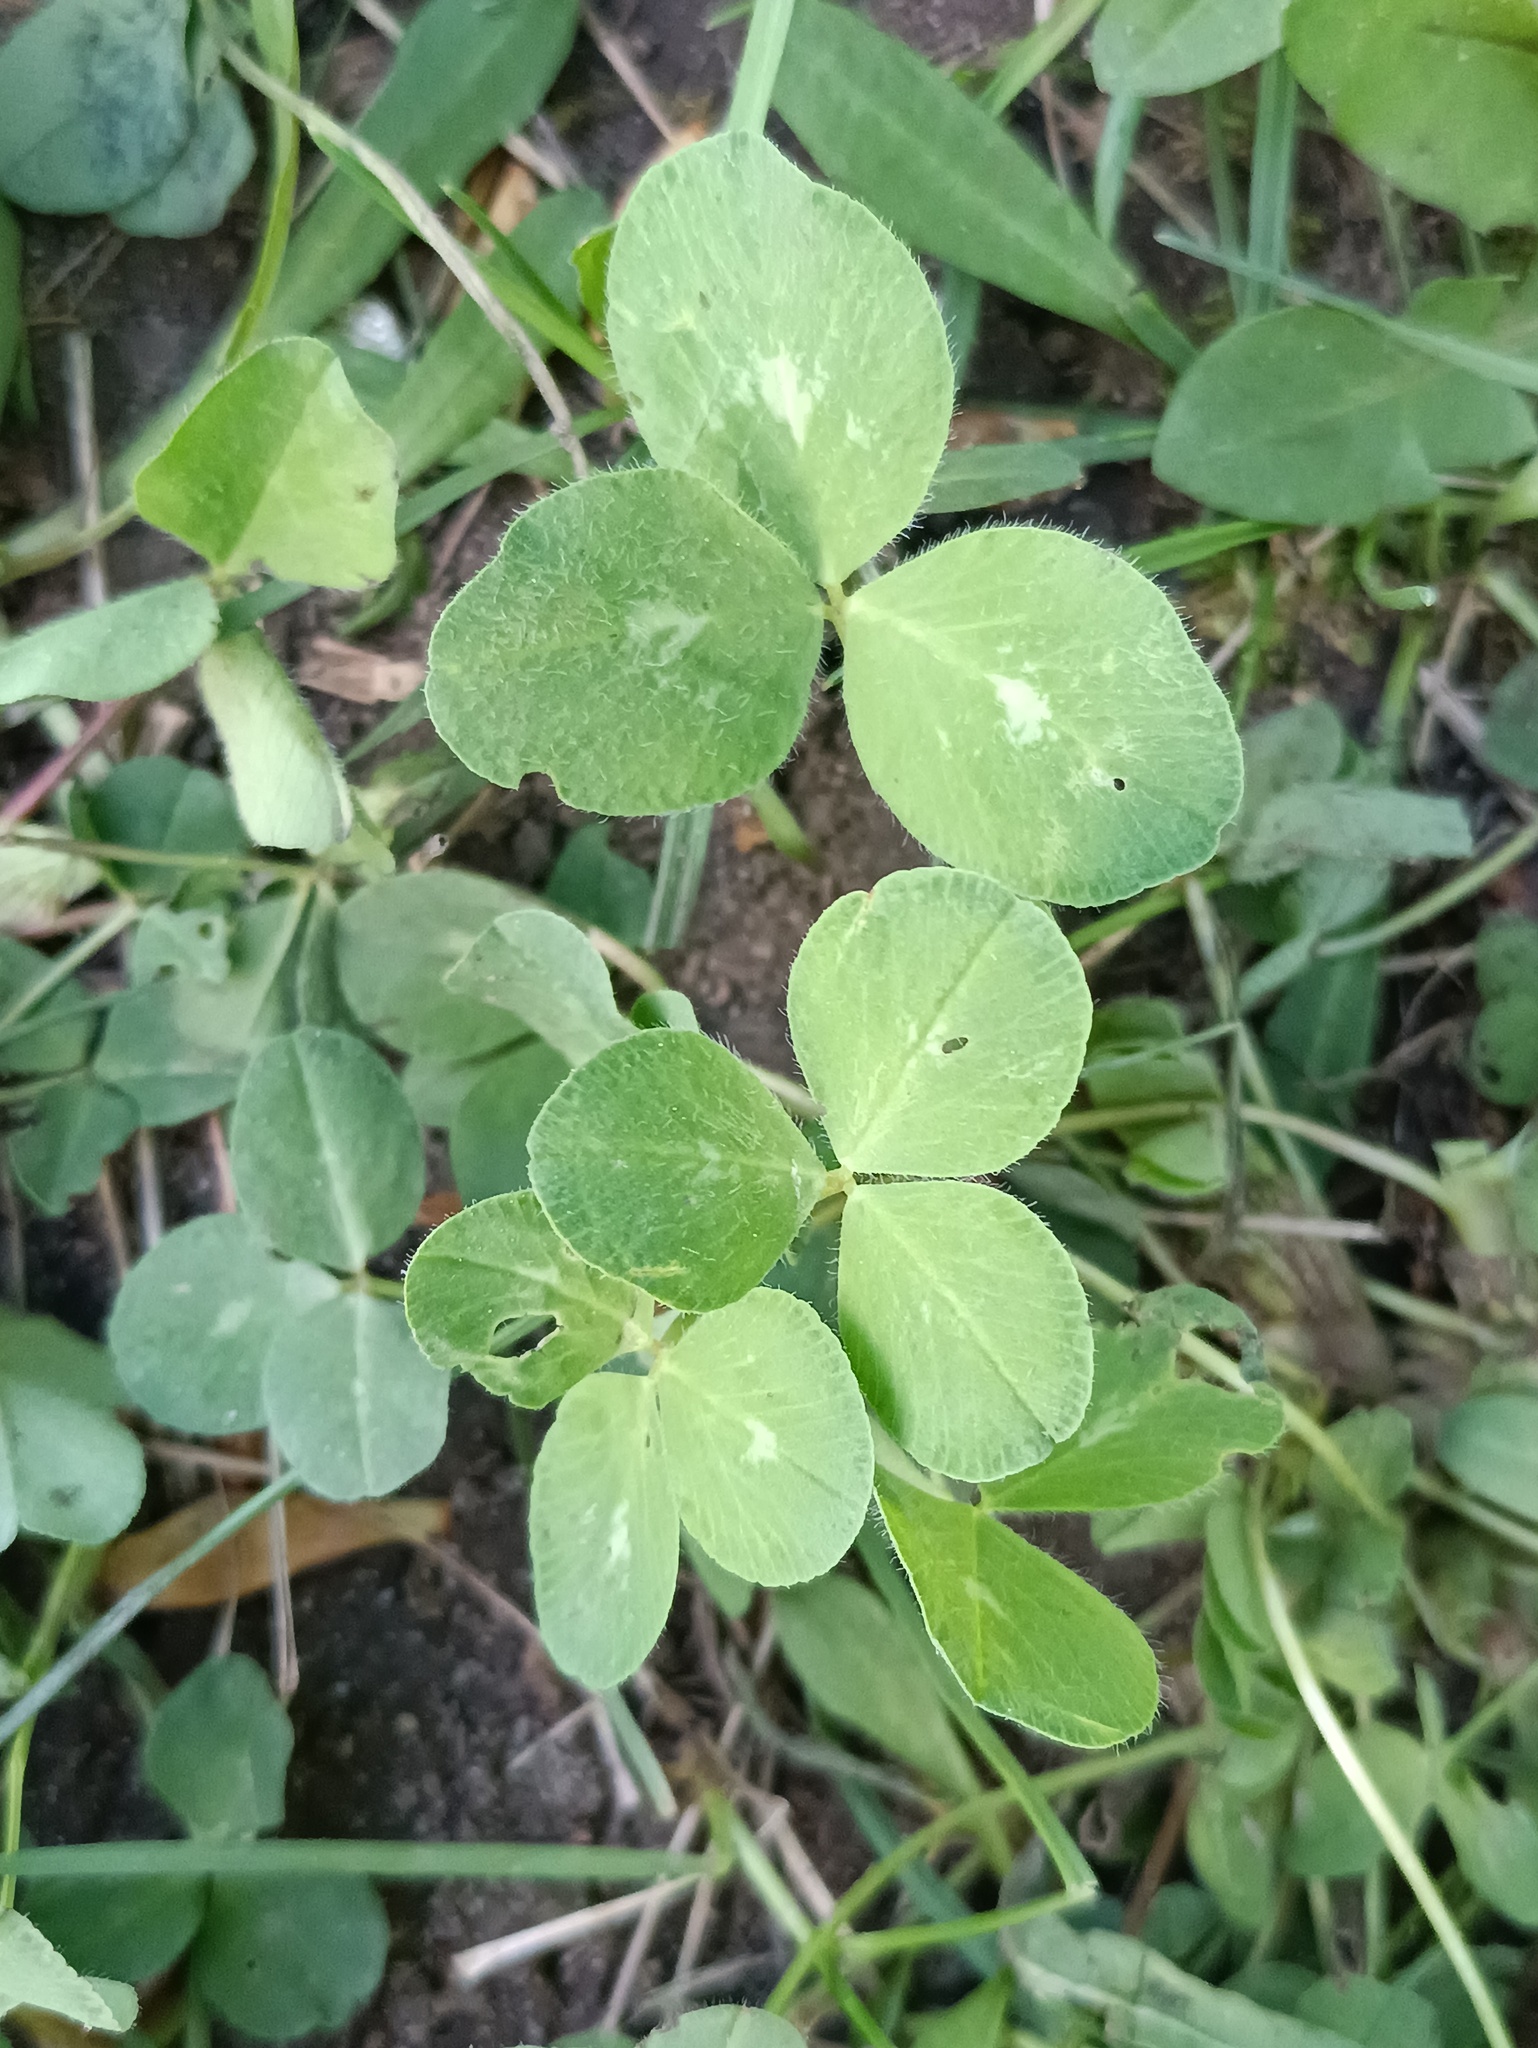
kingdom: Plantae
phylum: Tracheophyta
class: Magnoliopsida
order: Fabales
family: Fabaceae
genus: Trifolium
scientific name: Trifolium pratense
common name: Red clover
